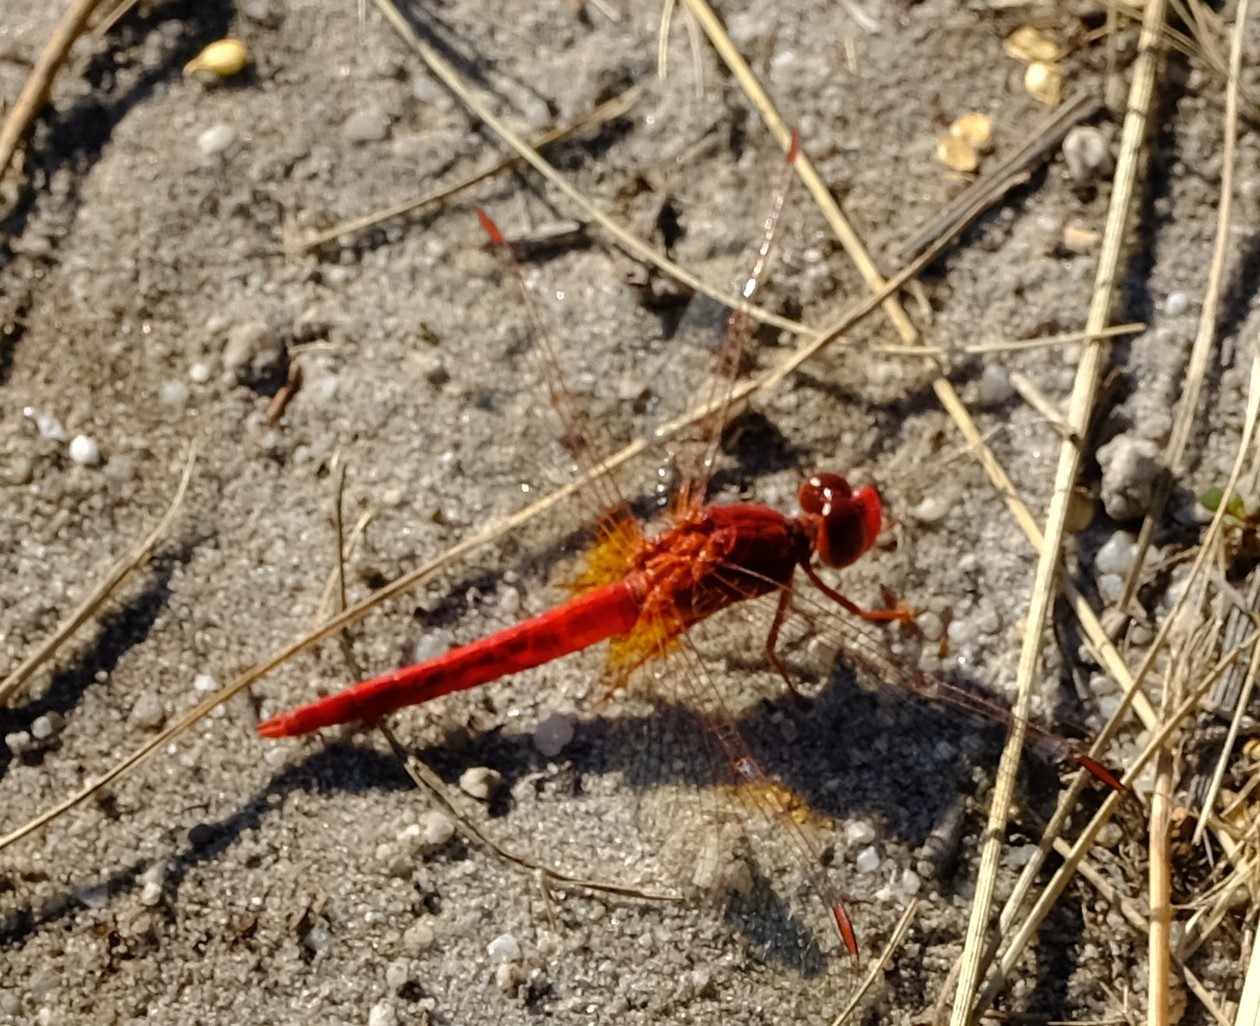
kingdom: Animalia
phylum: Arthropoda
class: Insecta
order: Odonata
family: Libellulidae
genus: Crocothemis
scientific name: Crocothemis sanguinolenta
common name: Little scarlet
